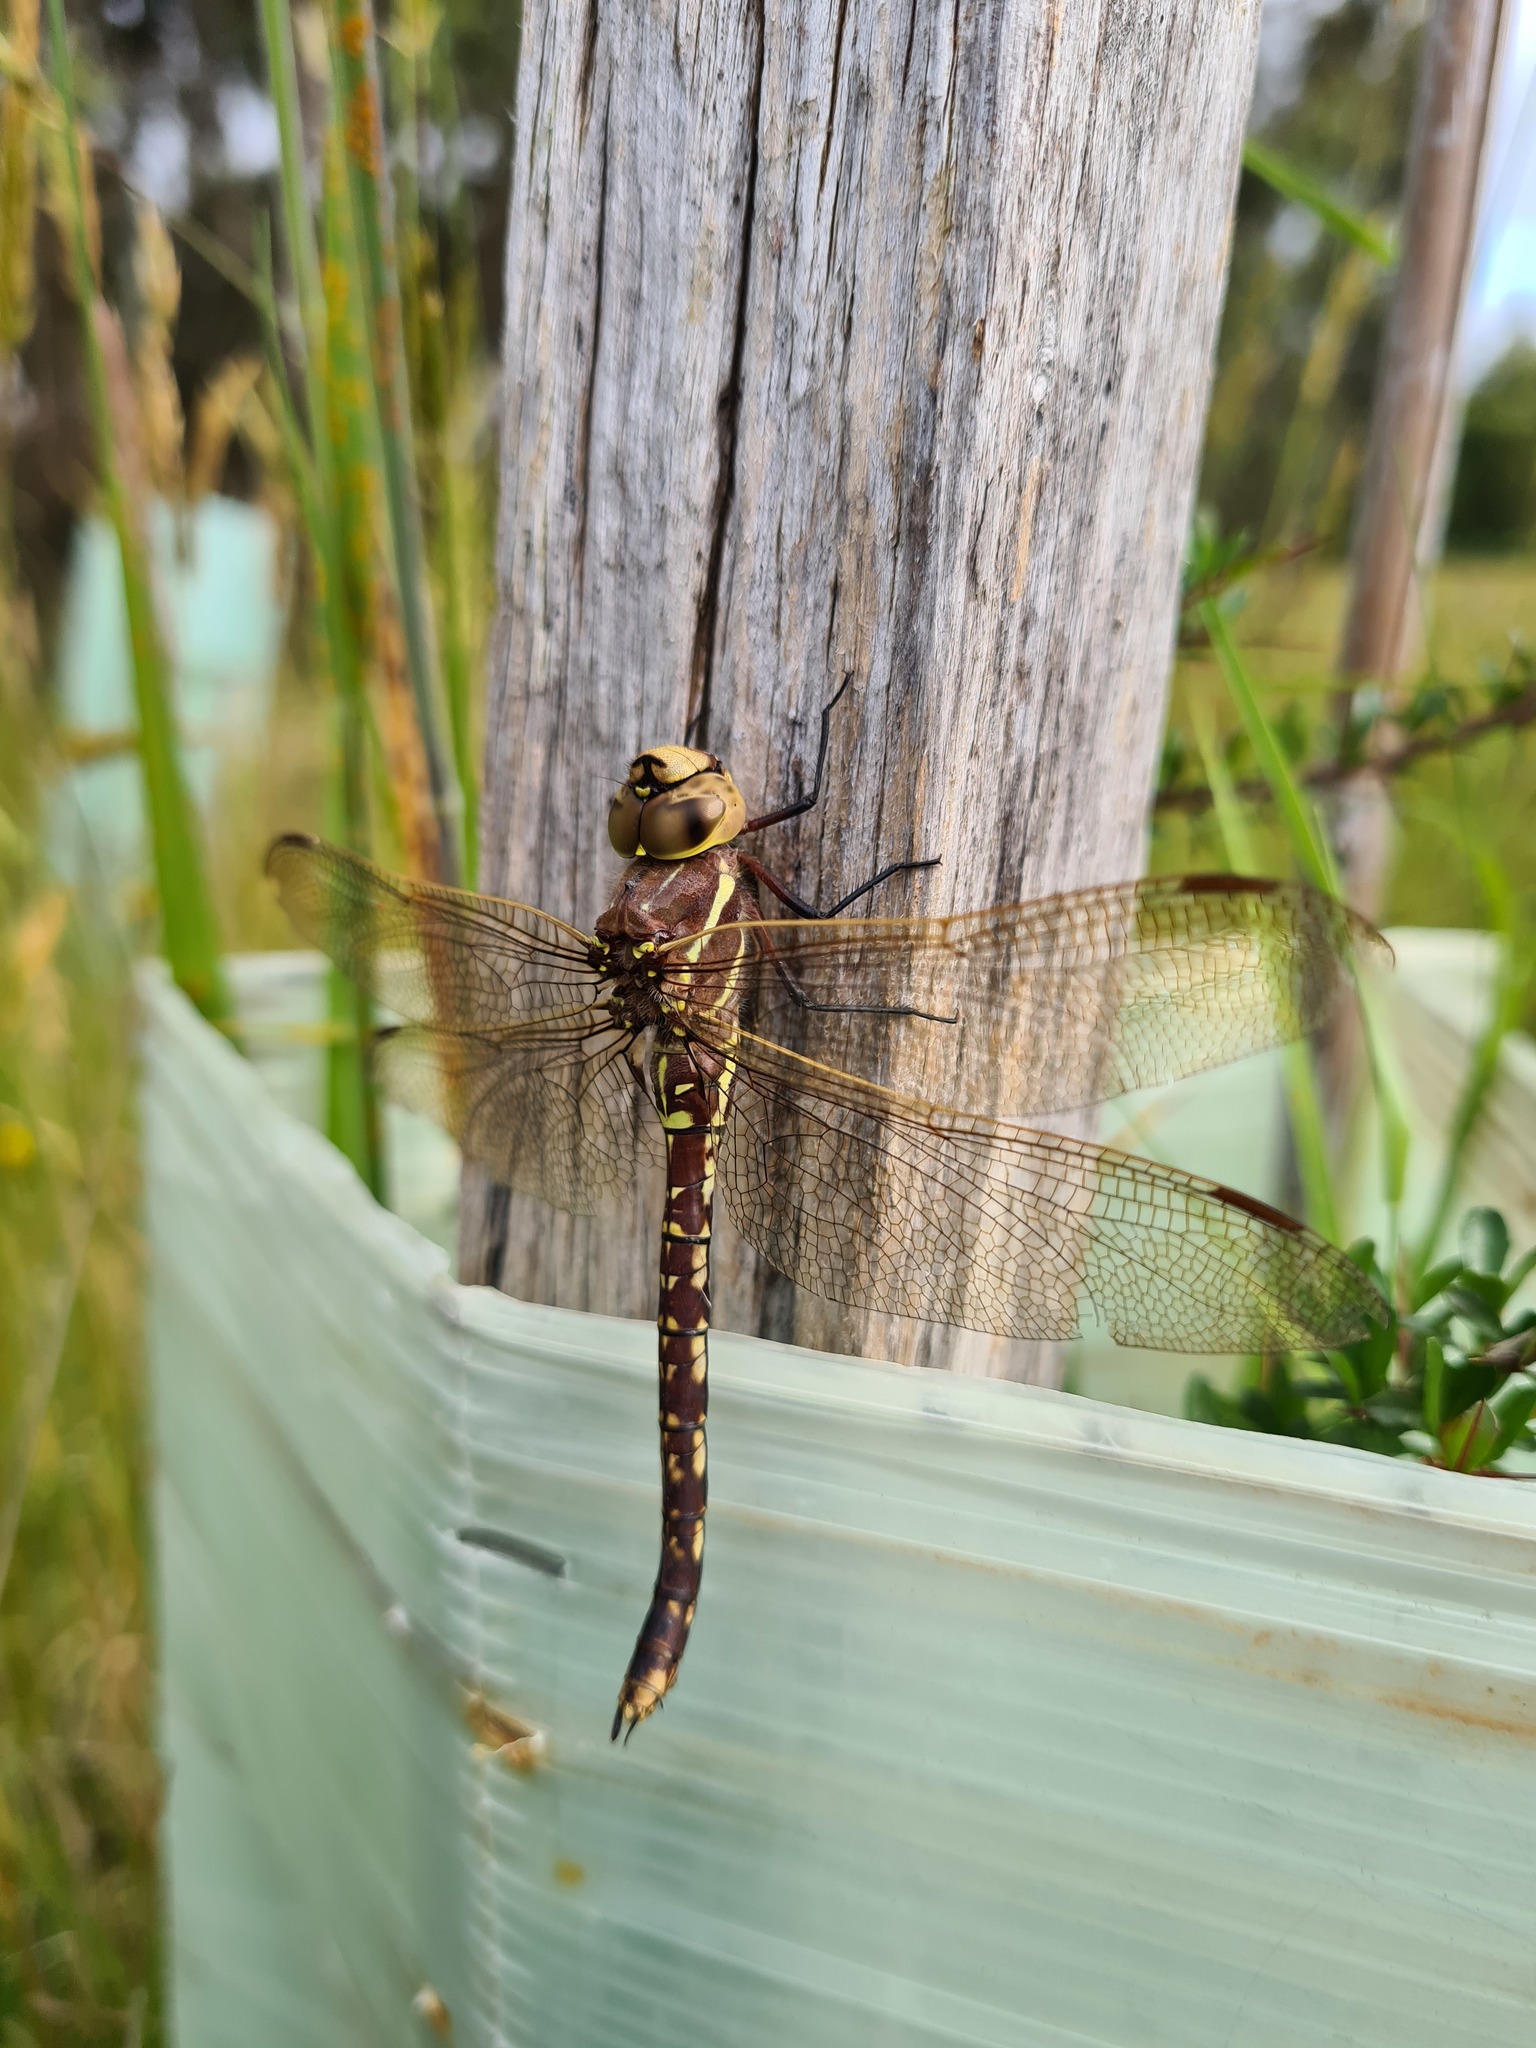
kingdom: Animalia
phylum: Arthropoda
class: Insecta
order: Odonata
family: Aeshnidae
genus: Aeshna
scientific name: Aeshna brevistyla
